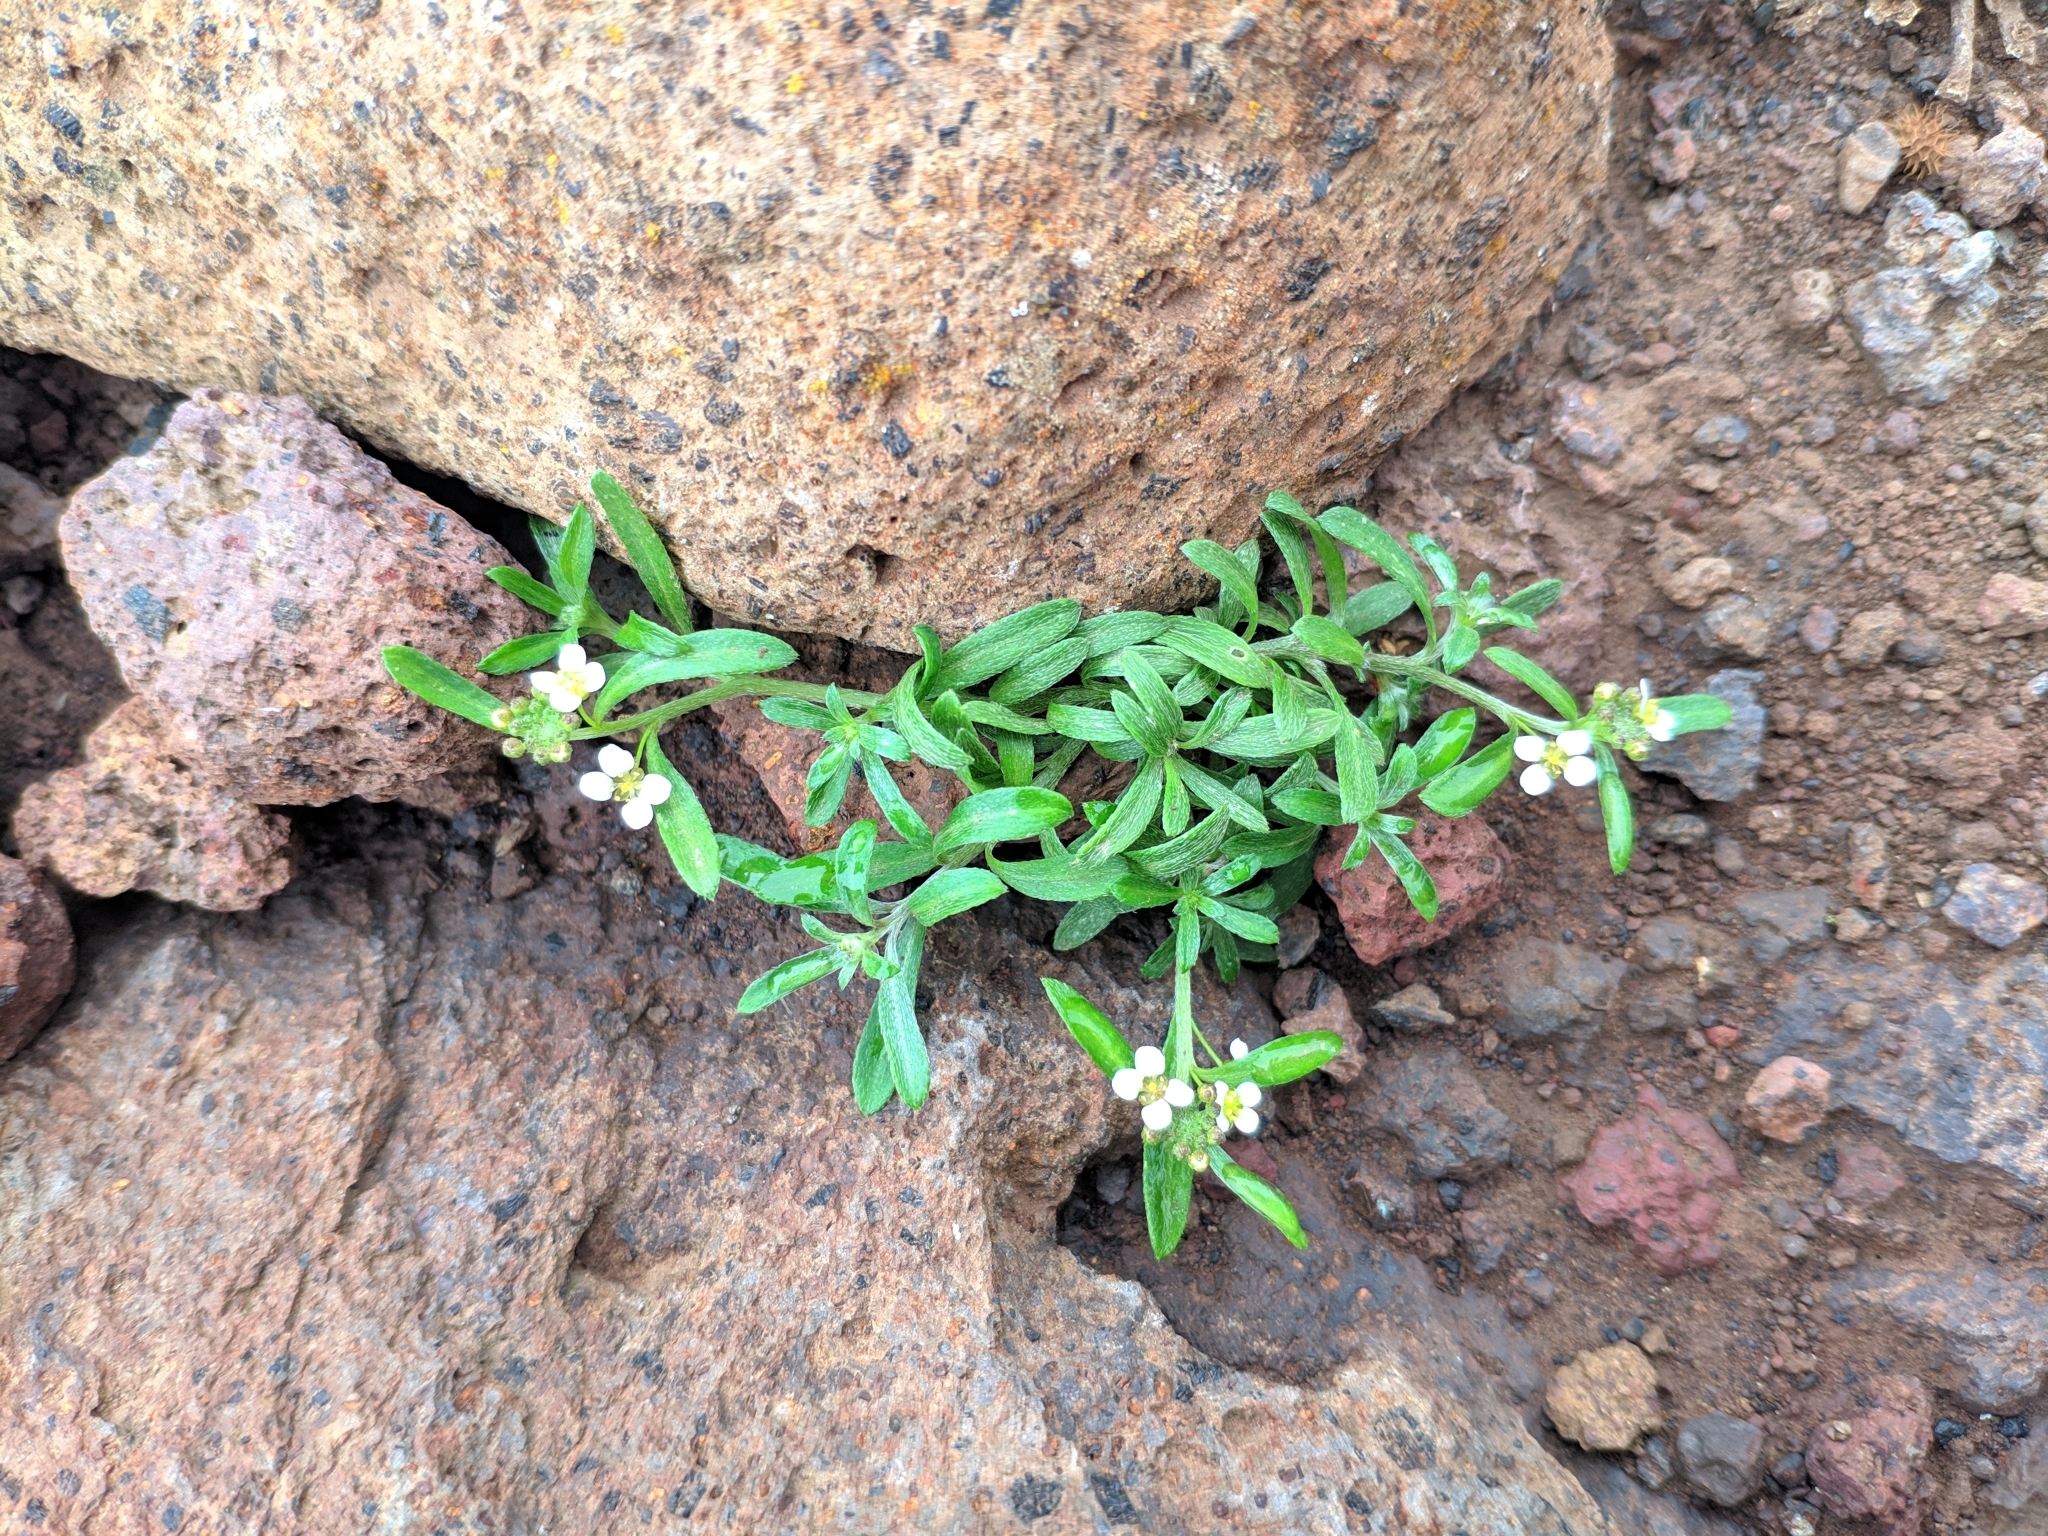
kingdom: Plantae
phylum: Tracheophyta
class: Magnoliopsida
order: Brassicales
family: Brassicaceae
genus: Lobularia
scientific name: Lobularia canariensis
